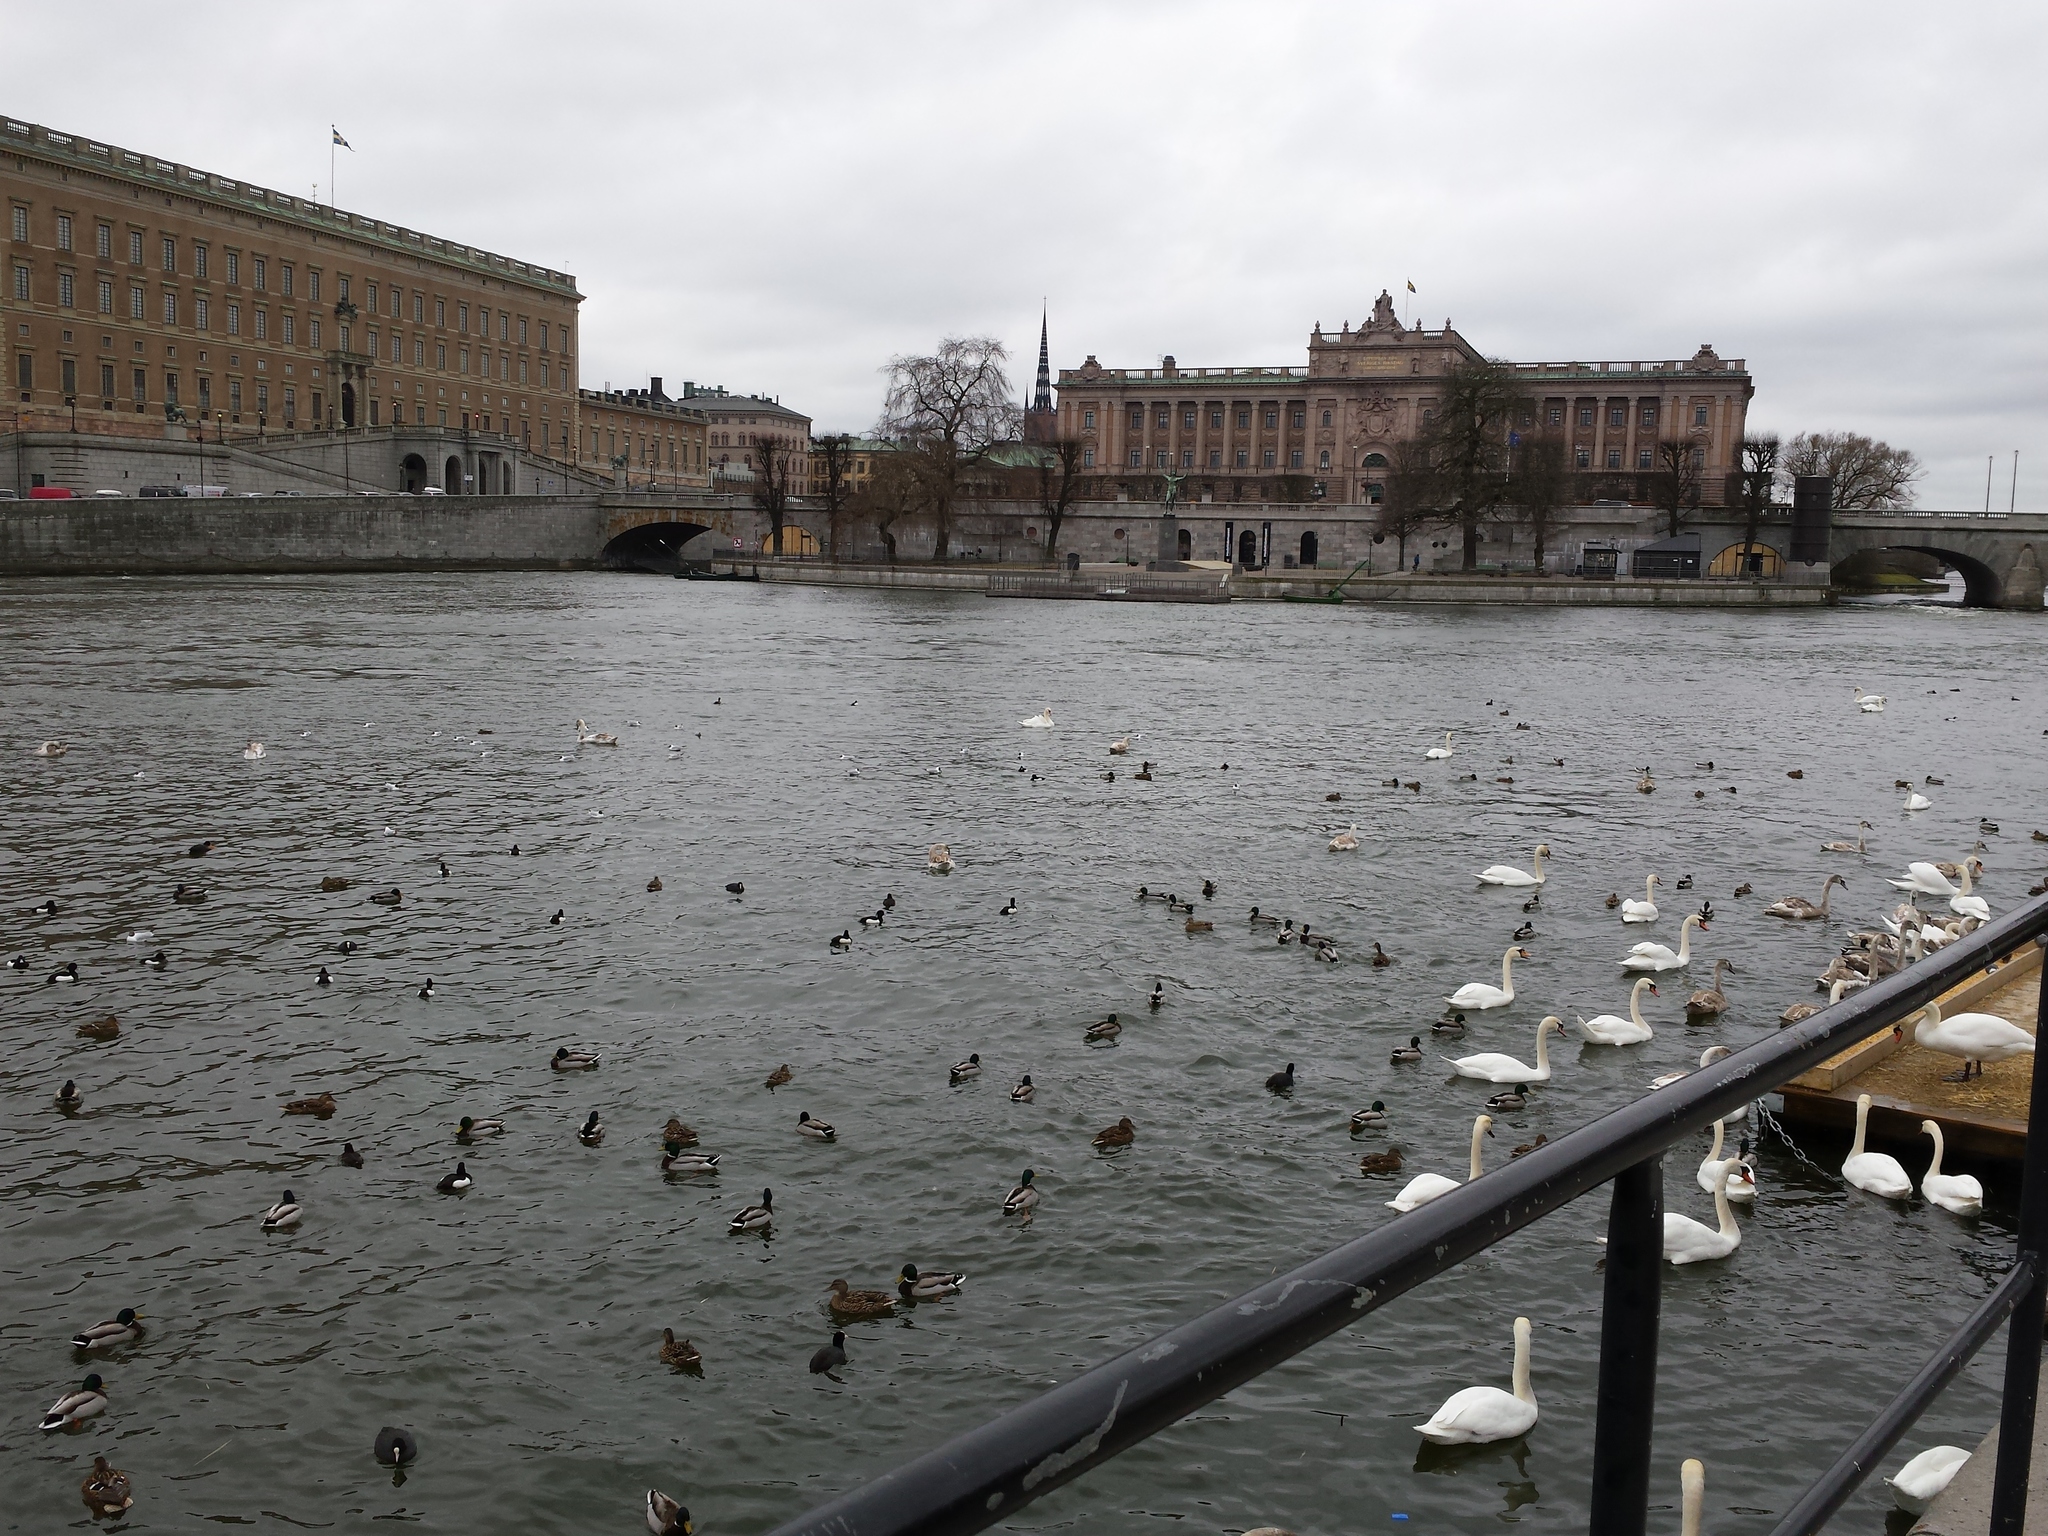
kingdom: Animalia
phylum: Chordata
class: Aves
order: Anseriformes
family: Anatidae
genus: Cygnus
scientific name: Cygnus olor
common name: Mute swan
